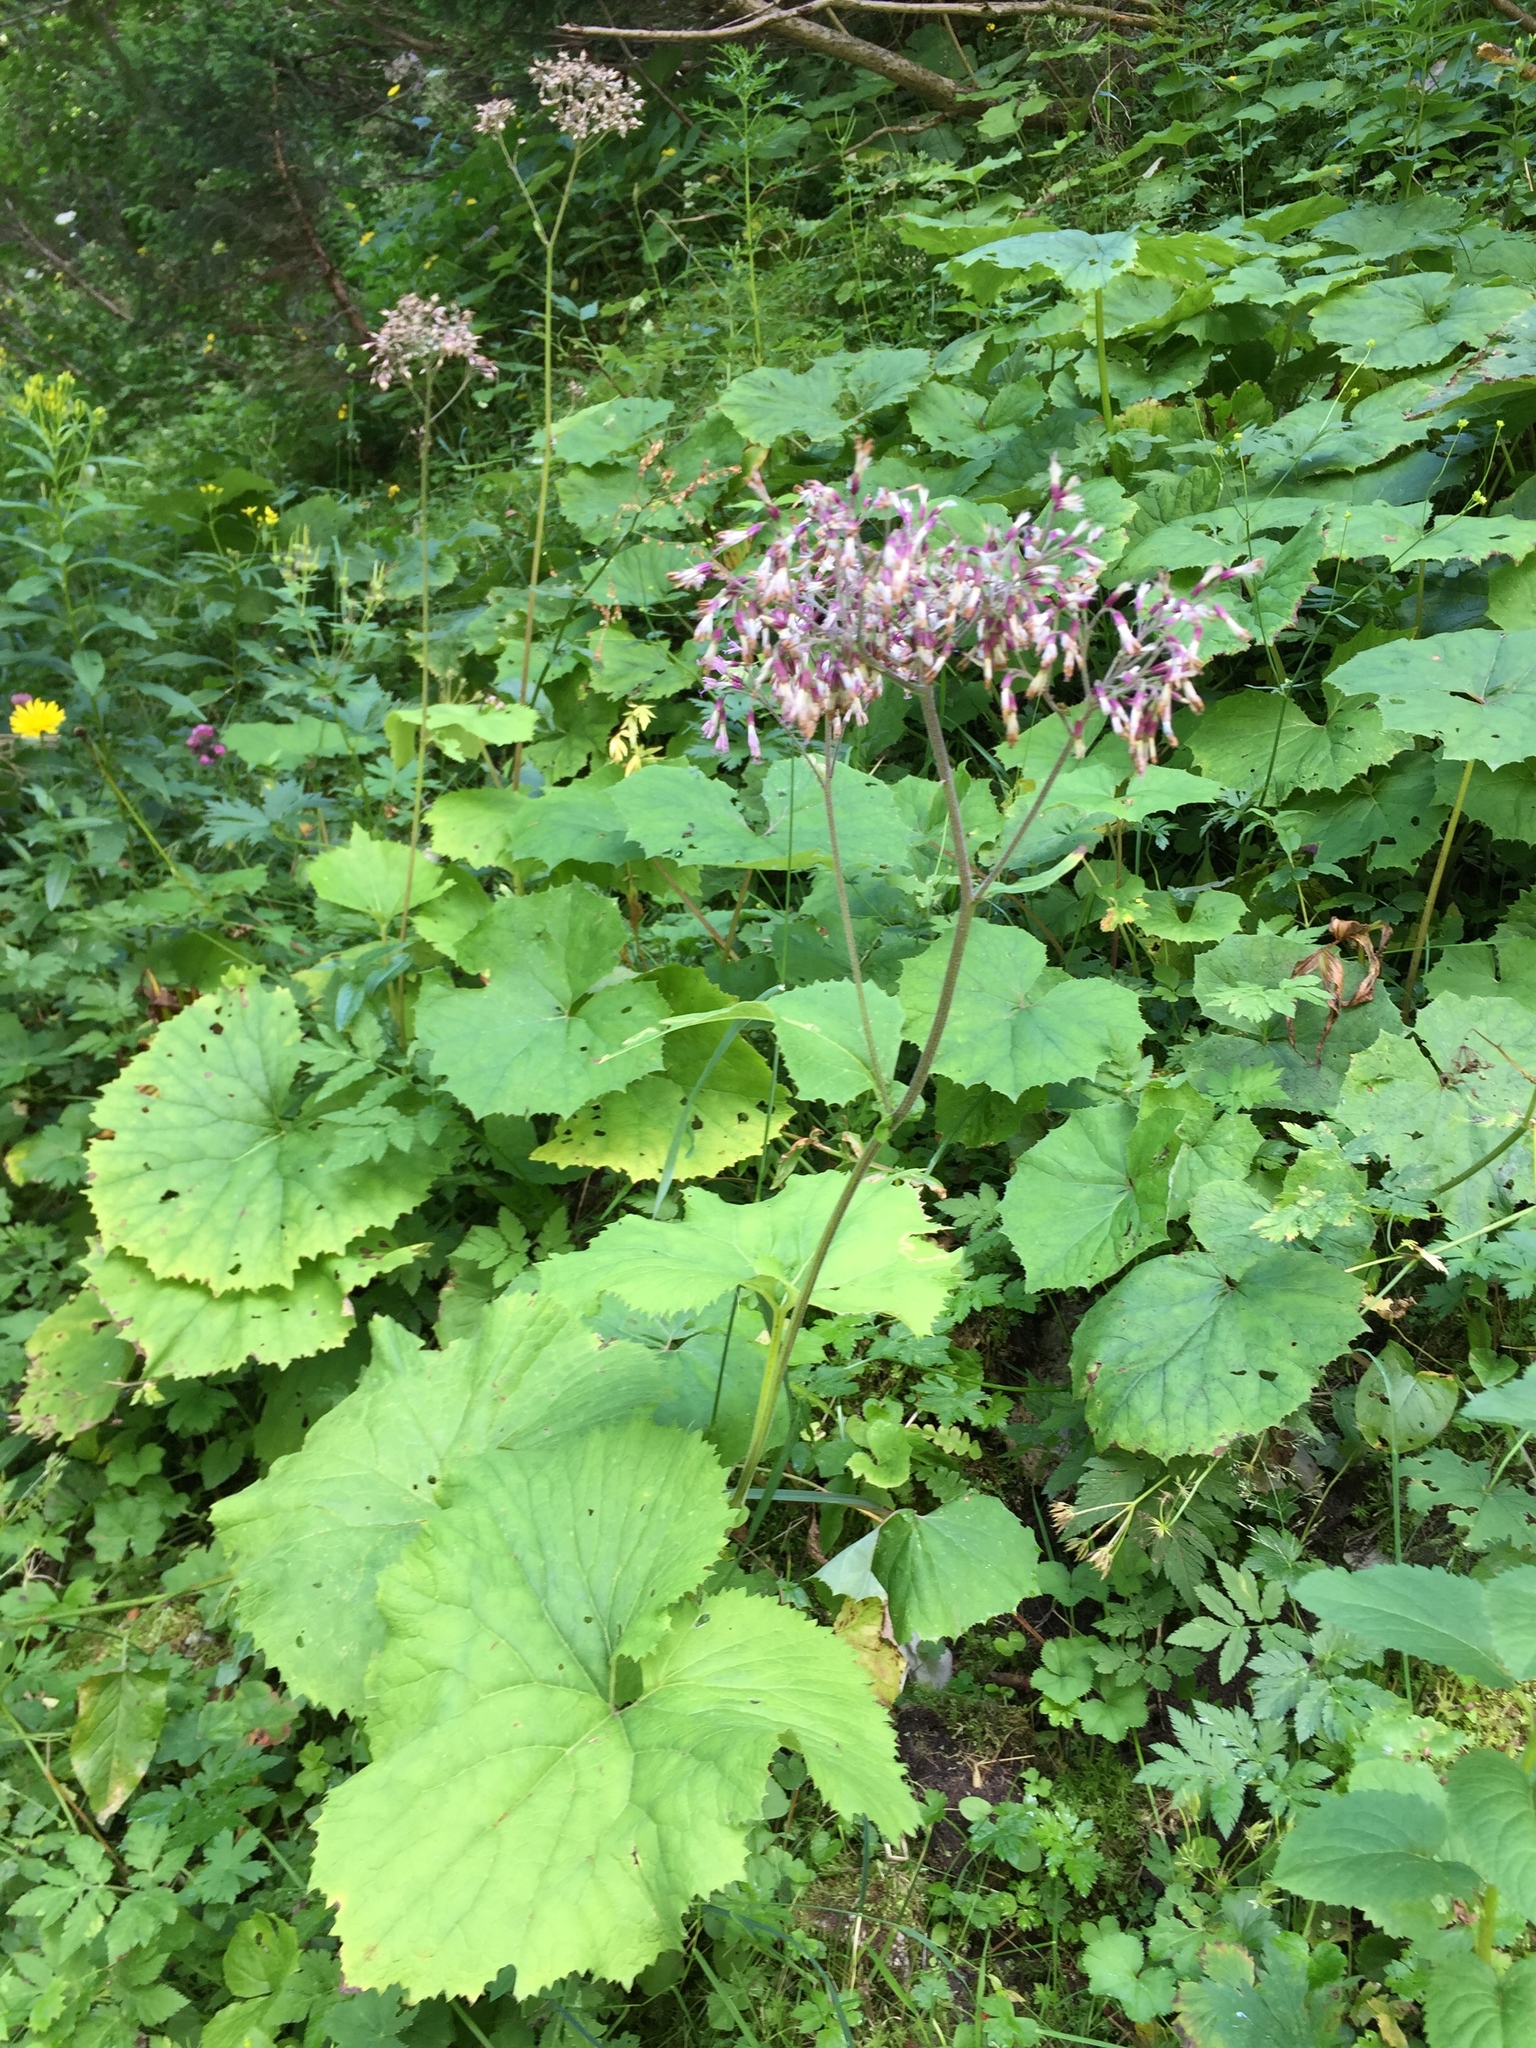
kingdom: Plantae
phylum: Tracheophyta
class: Magnoliopsida
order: Asterales
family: Asteraceae
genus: Adenostyles
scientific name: Adenostyles alliariae
